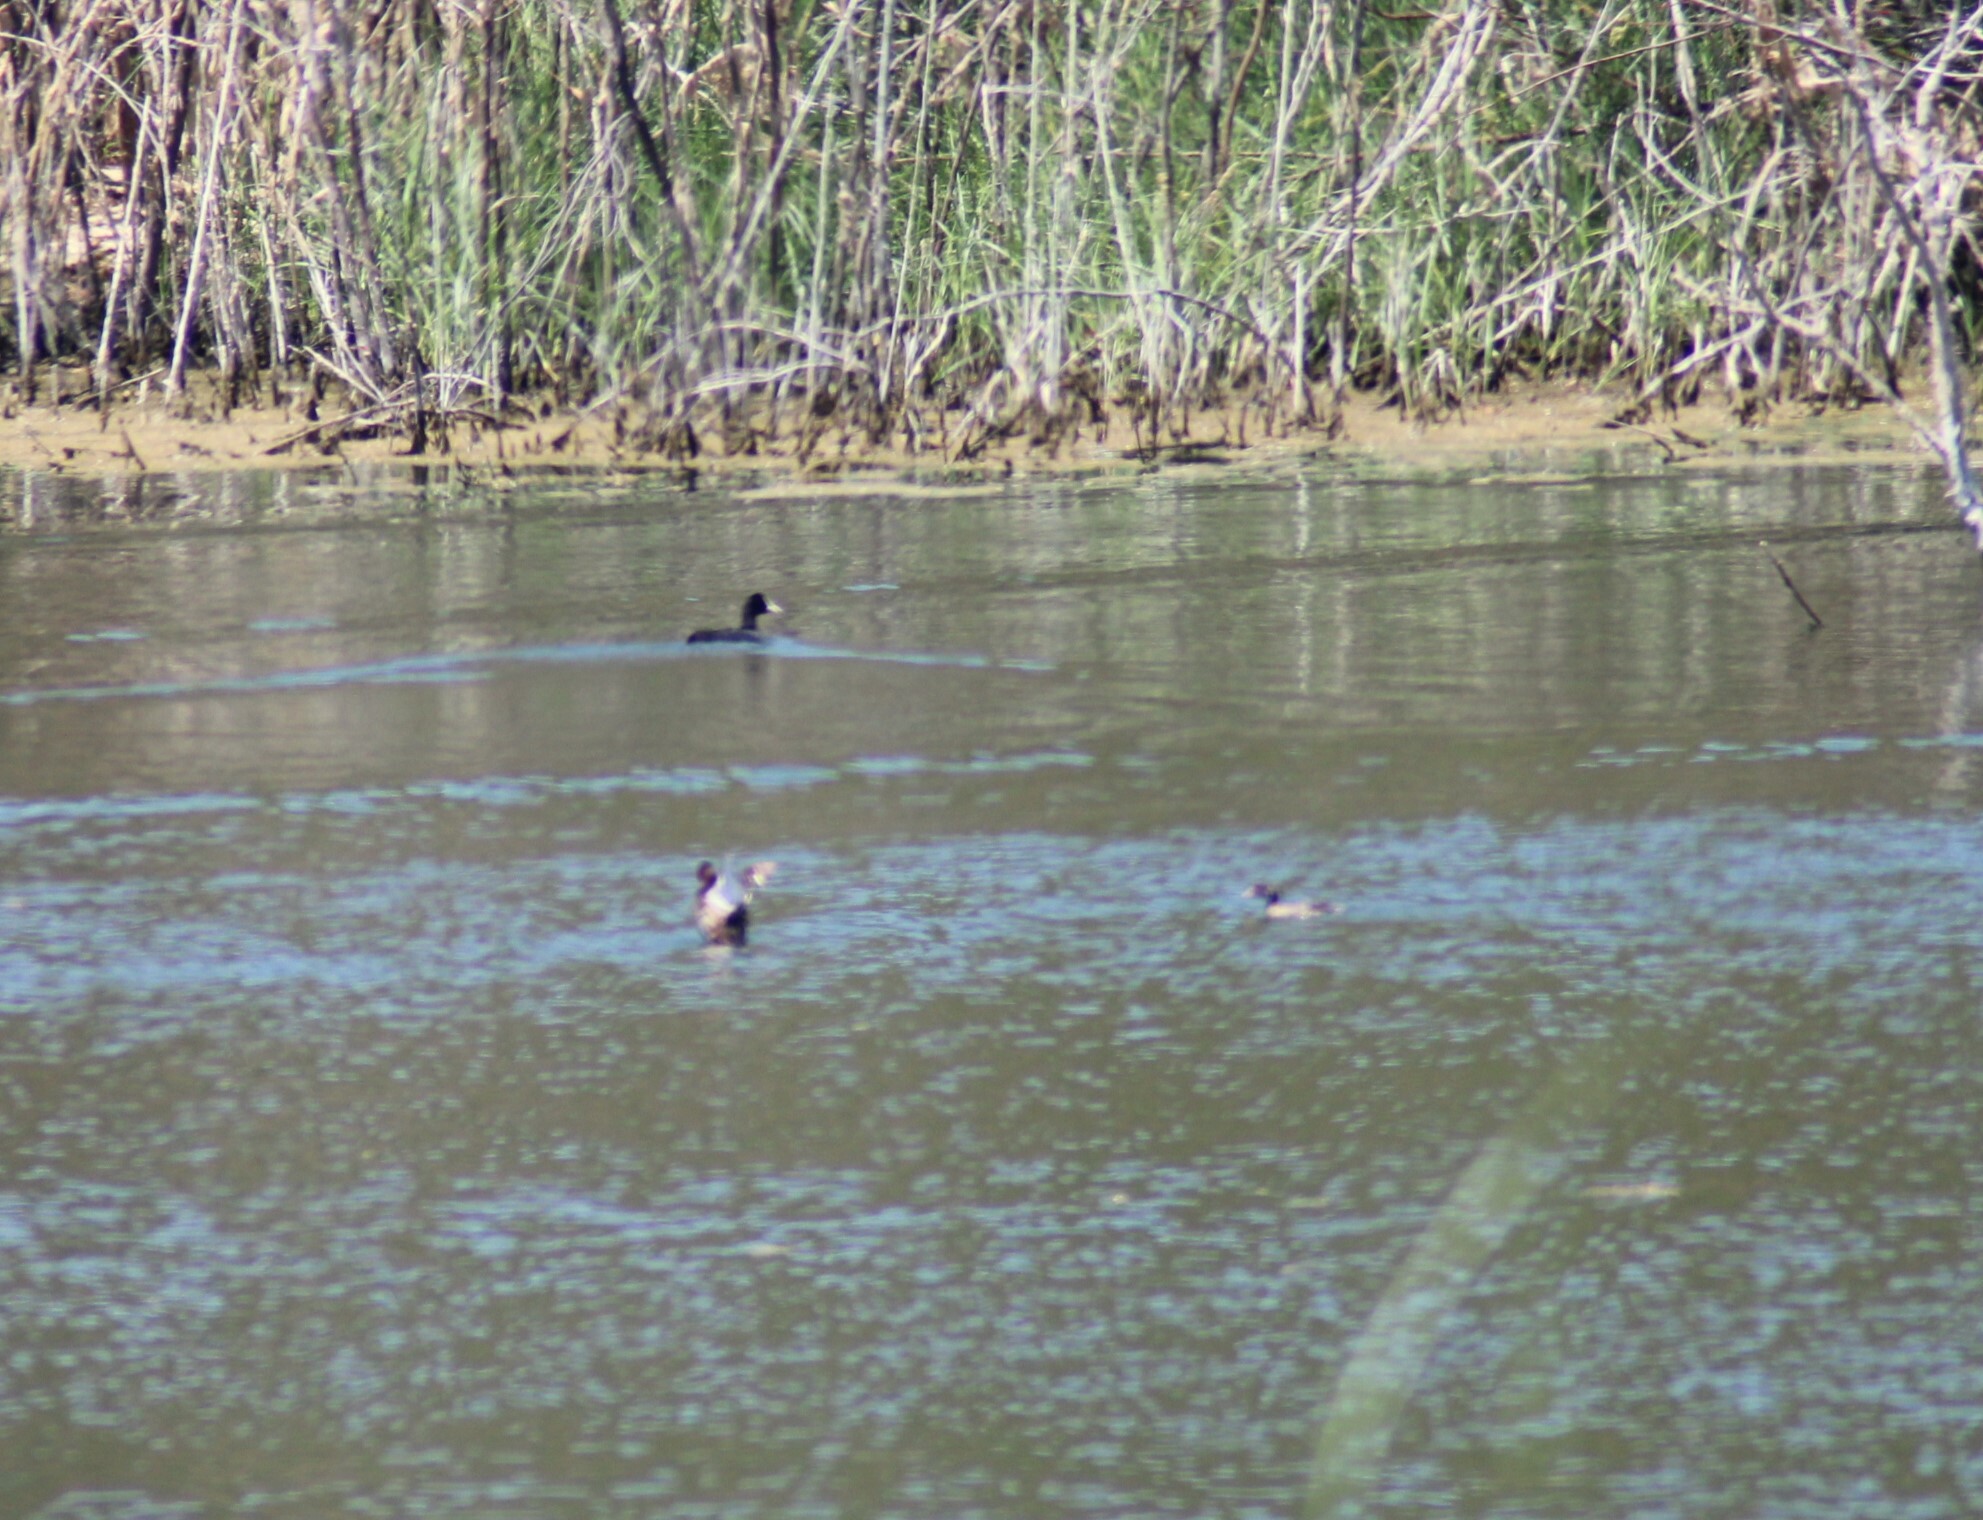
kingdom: Animalia
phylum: Chordata
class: Aves
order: Podicipediformes
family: Podicipedidae
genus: Tachybaptus
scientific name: Tachybaptus ruficollis
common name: Little grebe
